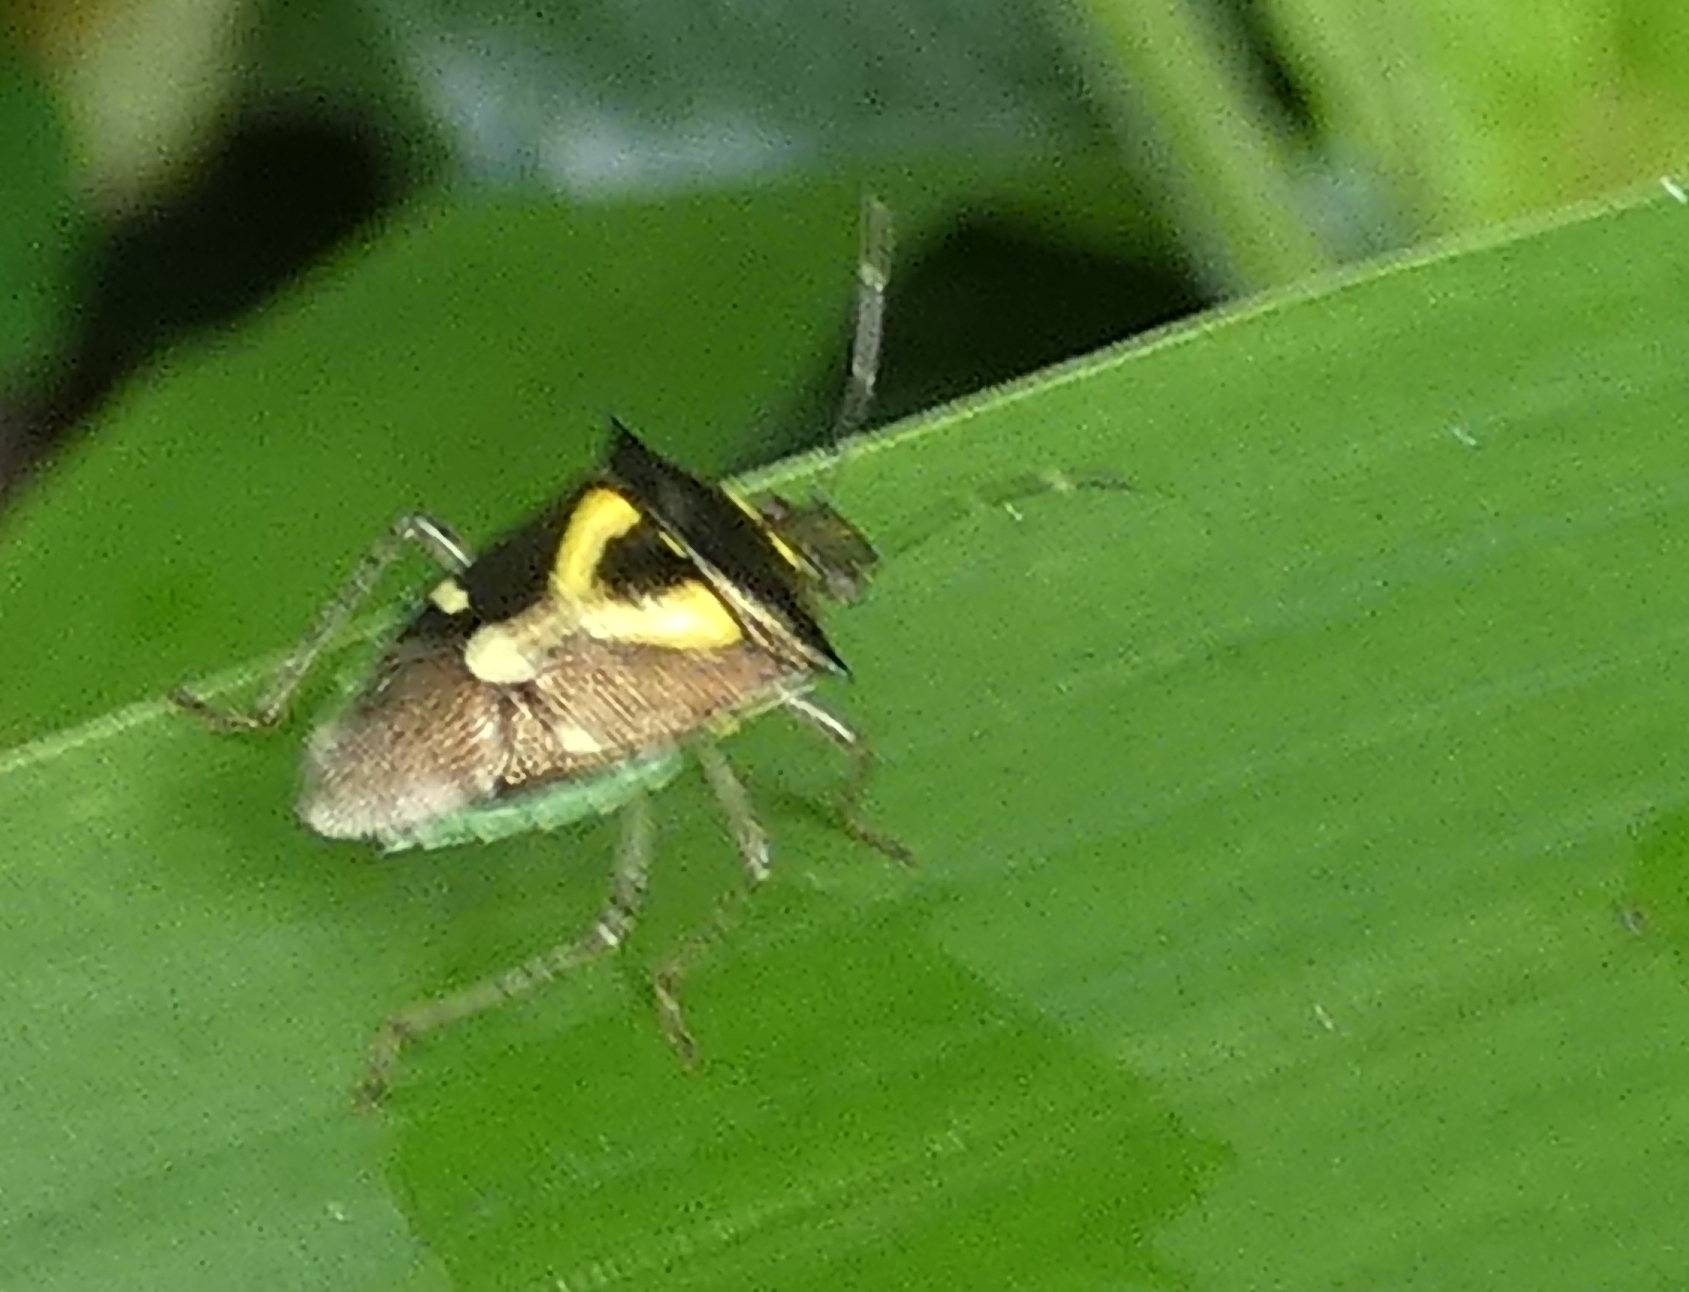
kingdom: Animalia
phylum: Arthropoda
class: Insecta
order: Hemiptera
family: Pentatomidae
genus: Mormidea
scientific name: Mormidea ypsilon
